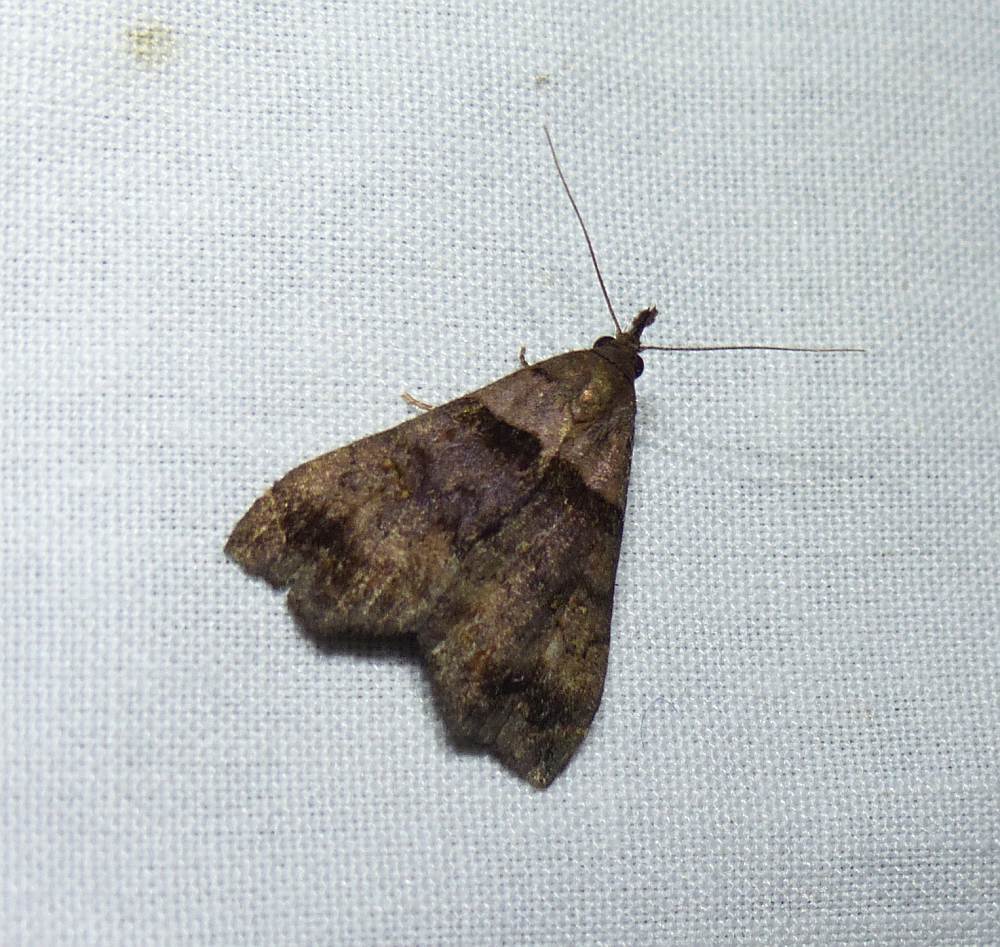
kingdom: Animalia
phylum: Arthropoda
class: Insecta
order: Lepidoptera
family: Erebidae
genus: Lascoria
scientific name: Lascoria ambigualis
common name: Ambiguous moth
